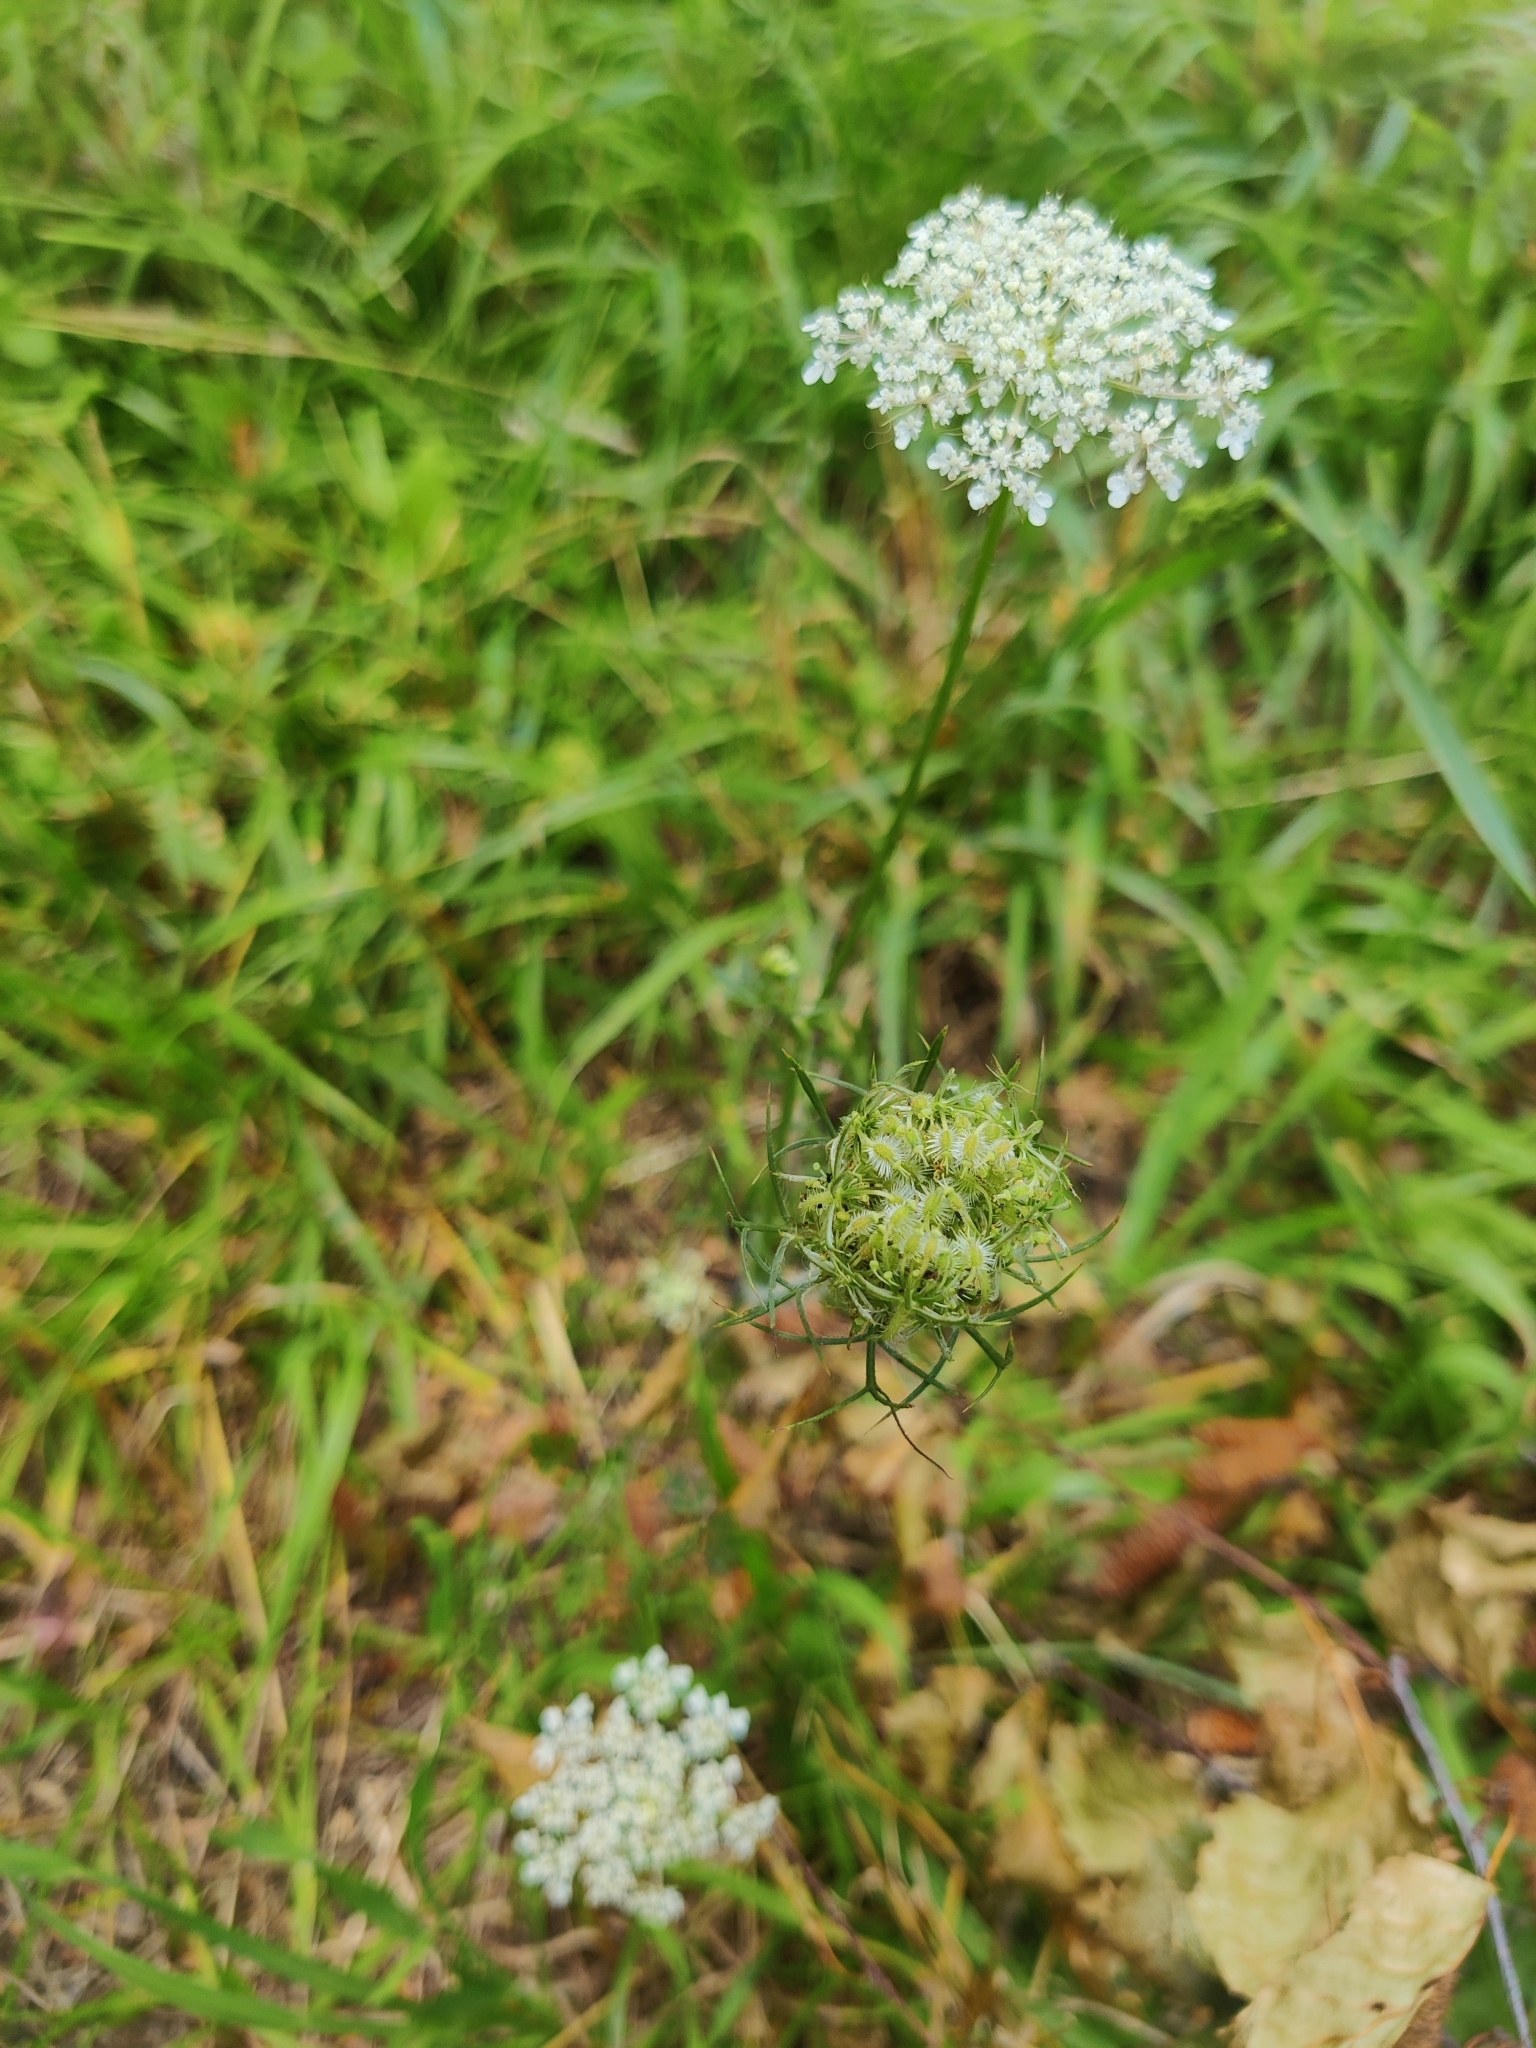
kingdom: Plantae
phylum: Tracheophyta
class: Magnoliopsida
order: Apiales
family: Apiaceae
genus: Daucus
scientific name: Daucus carota
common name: Wild carrot
